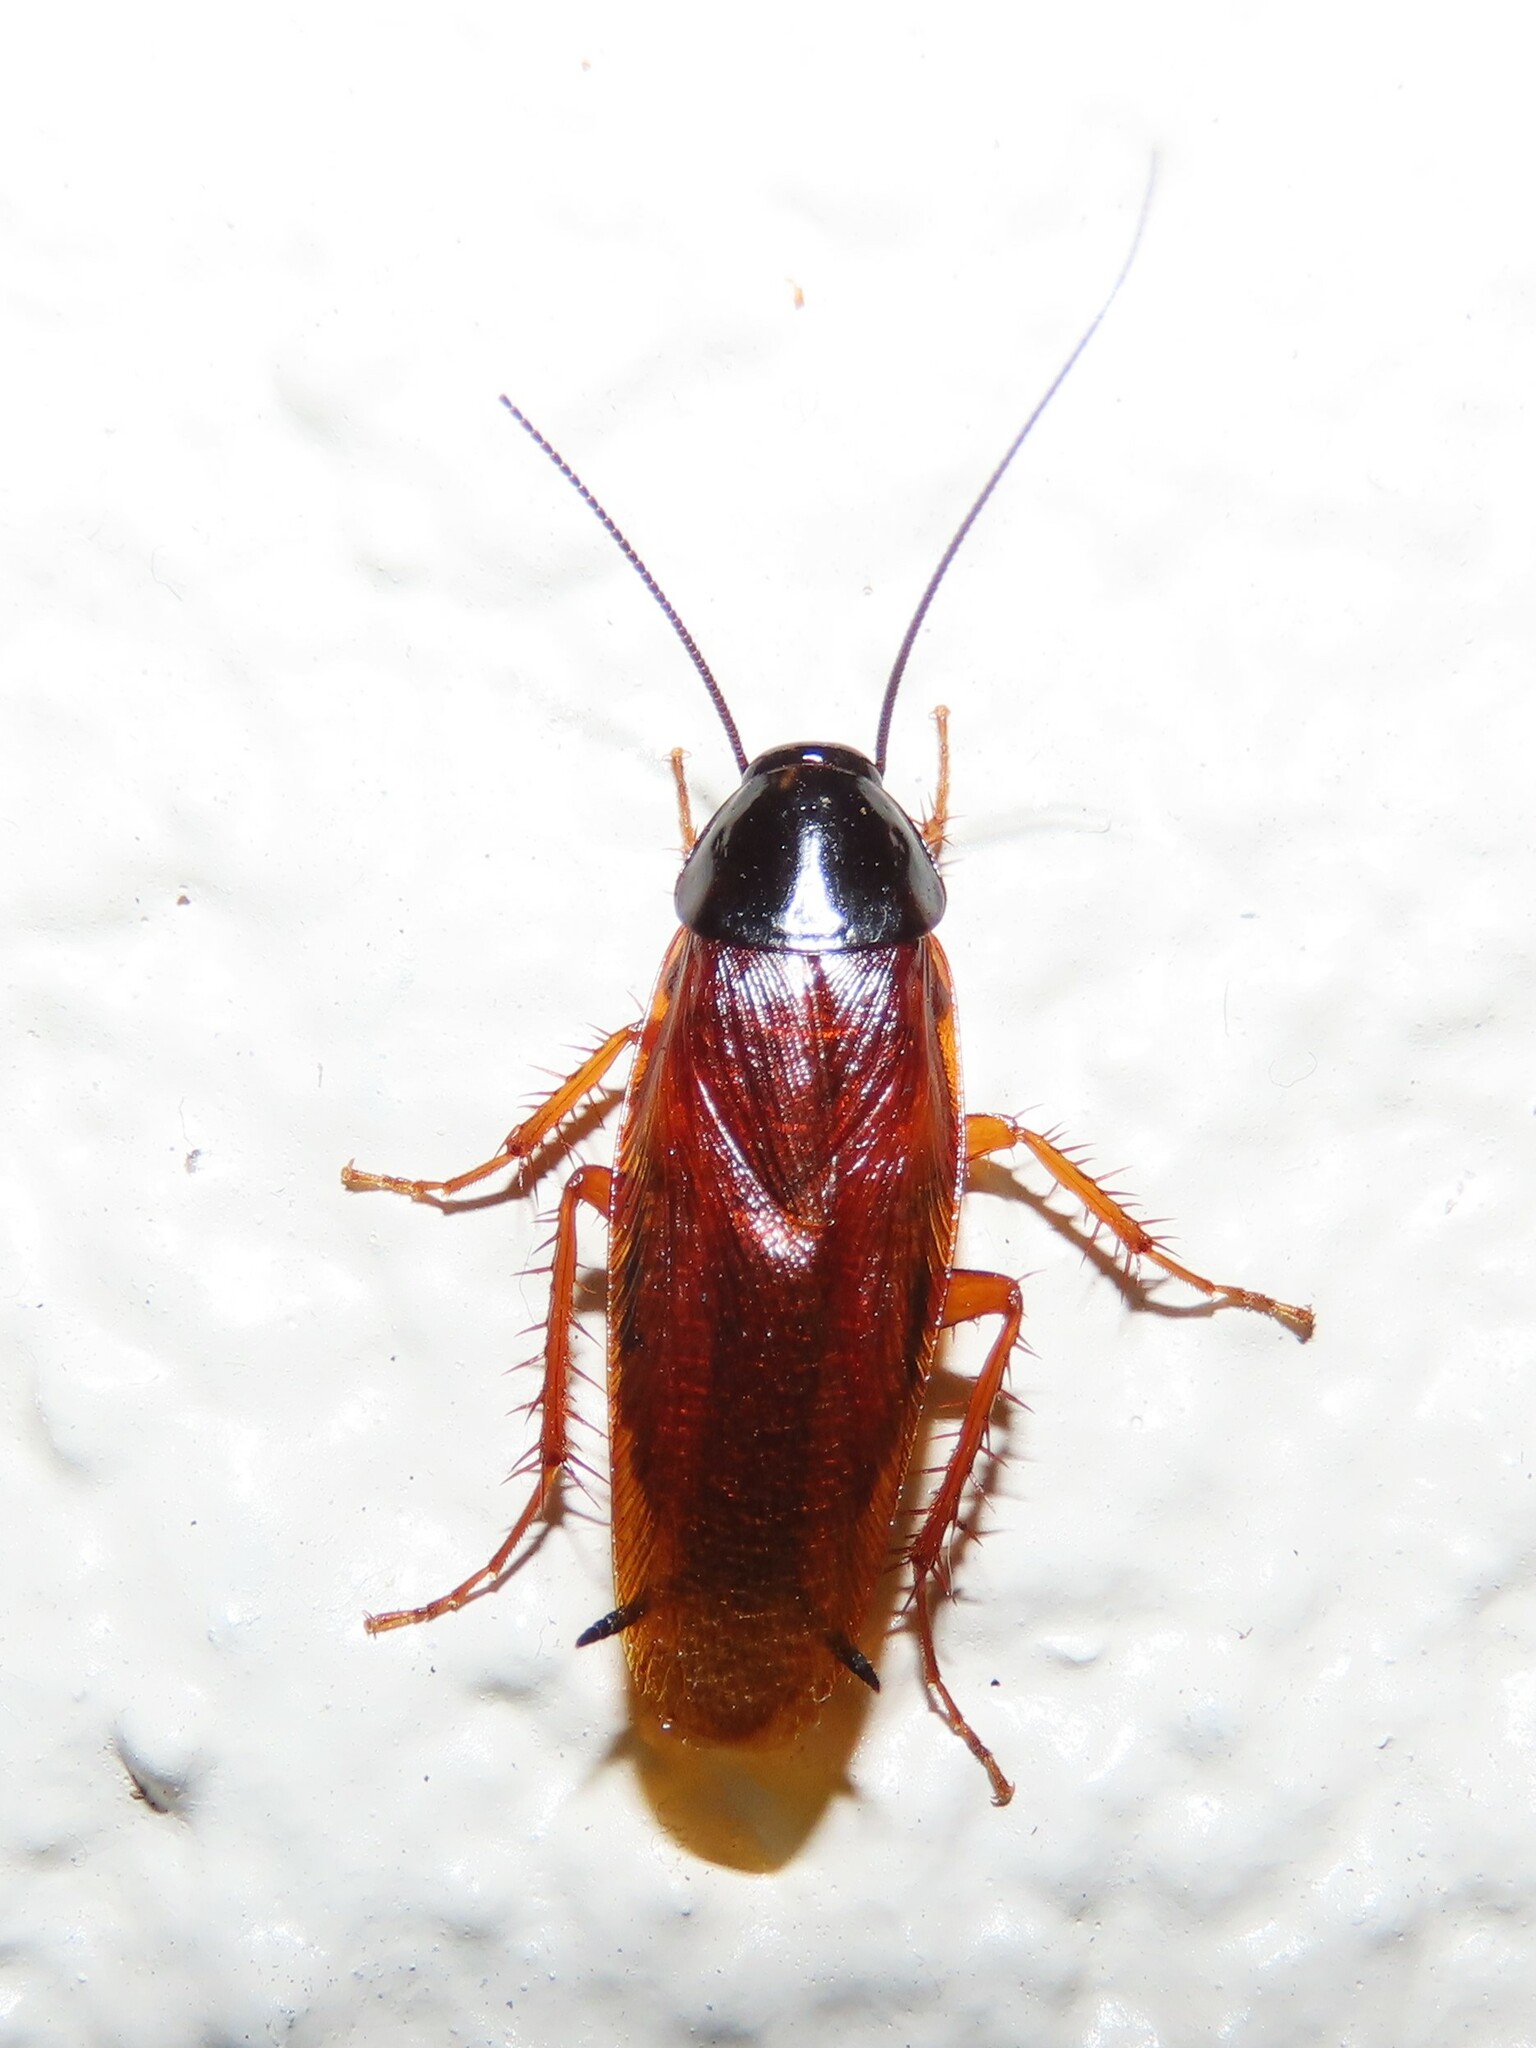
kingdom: Animalia
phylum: Arthropoda
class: Insecta
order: Blattodea
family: Ectobiidae
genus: Ischnoptera
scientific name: Ischnoptera deropeltiformis
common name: Dark wood cockroach
